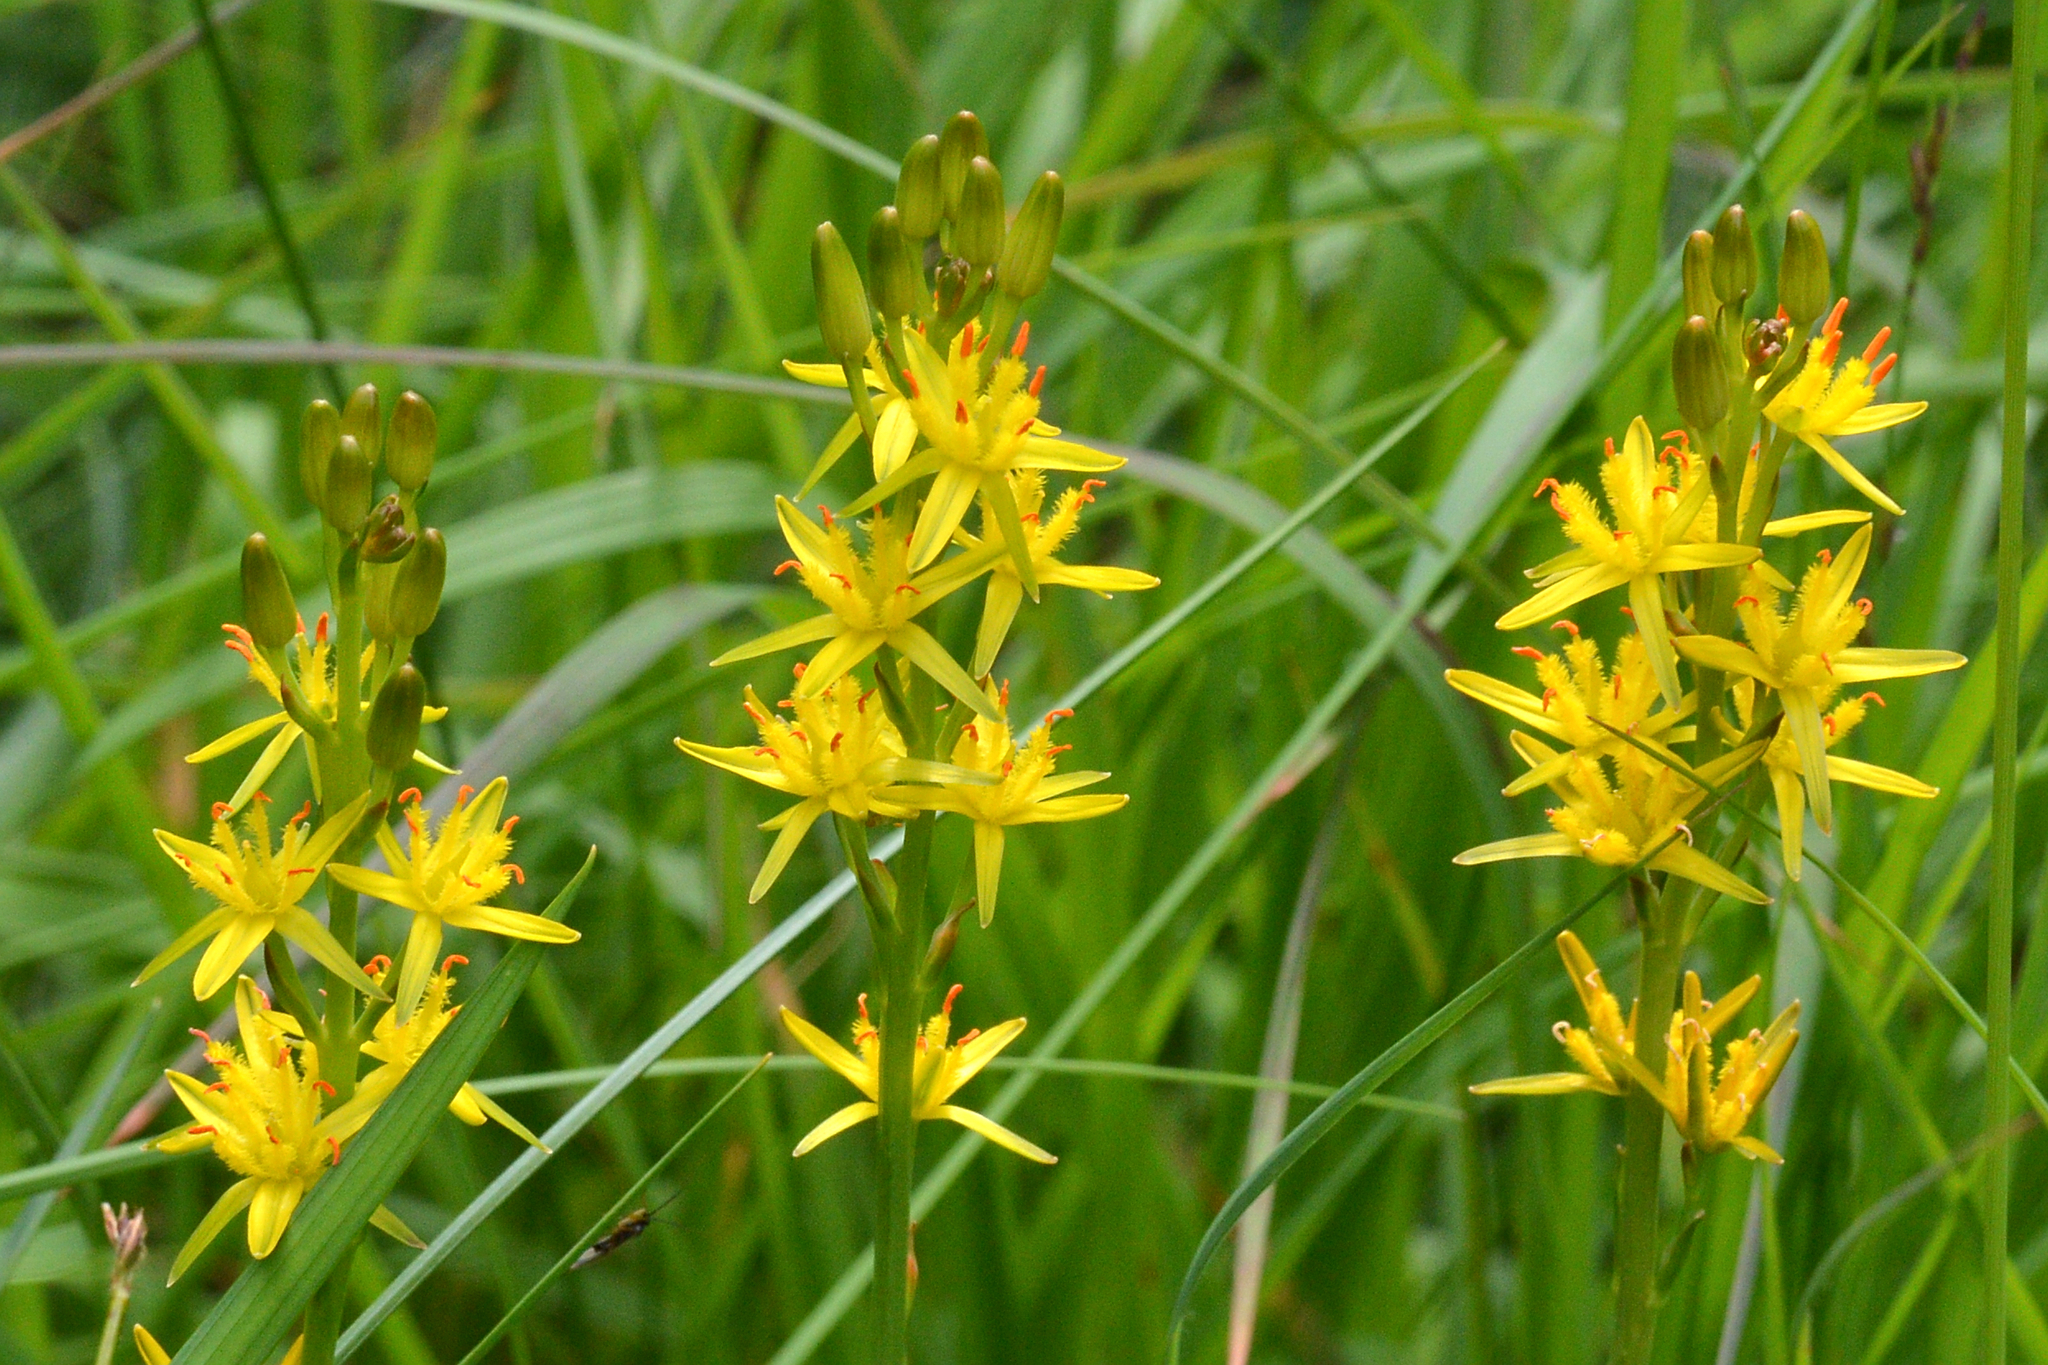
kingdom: Plantae
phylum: Tracheophyta
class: Liliopsida
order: Dioscoreales
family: Nartheciaceae
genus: Narthecium
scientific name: Narthecium ossifragum
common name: Bog asphodel
